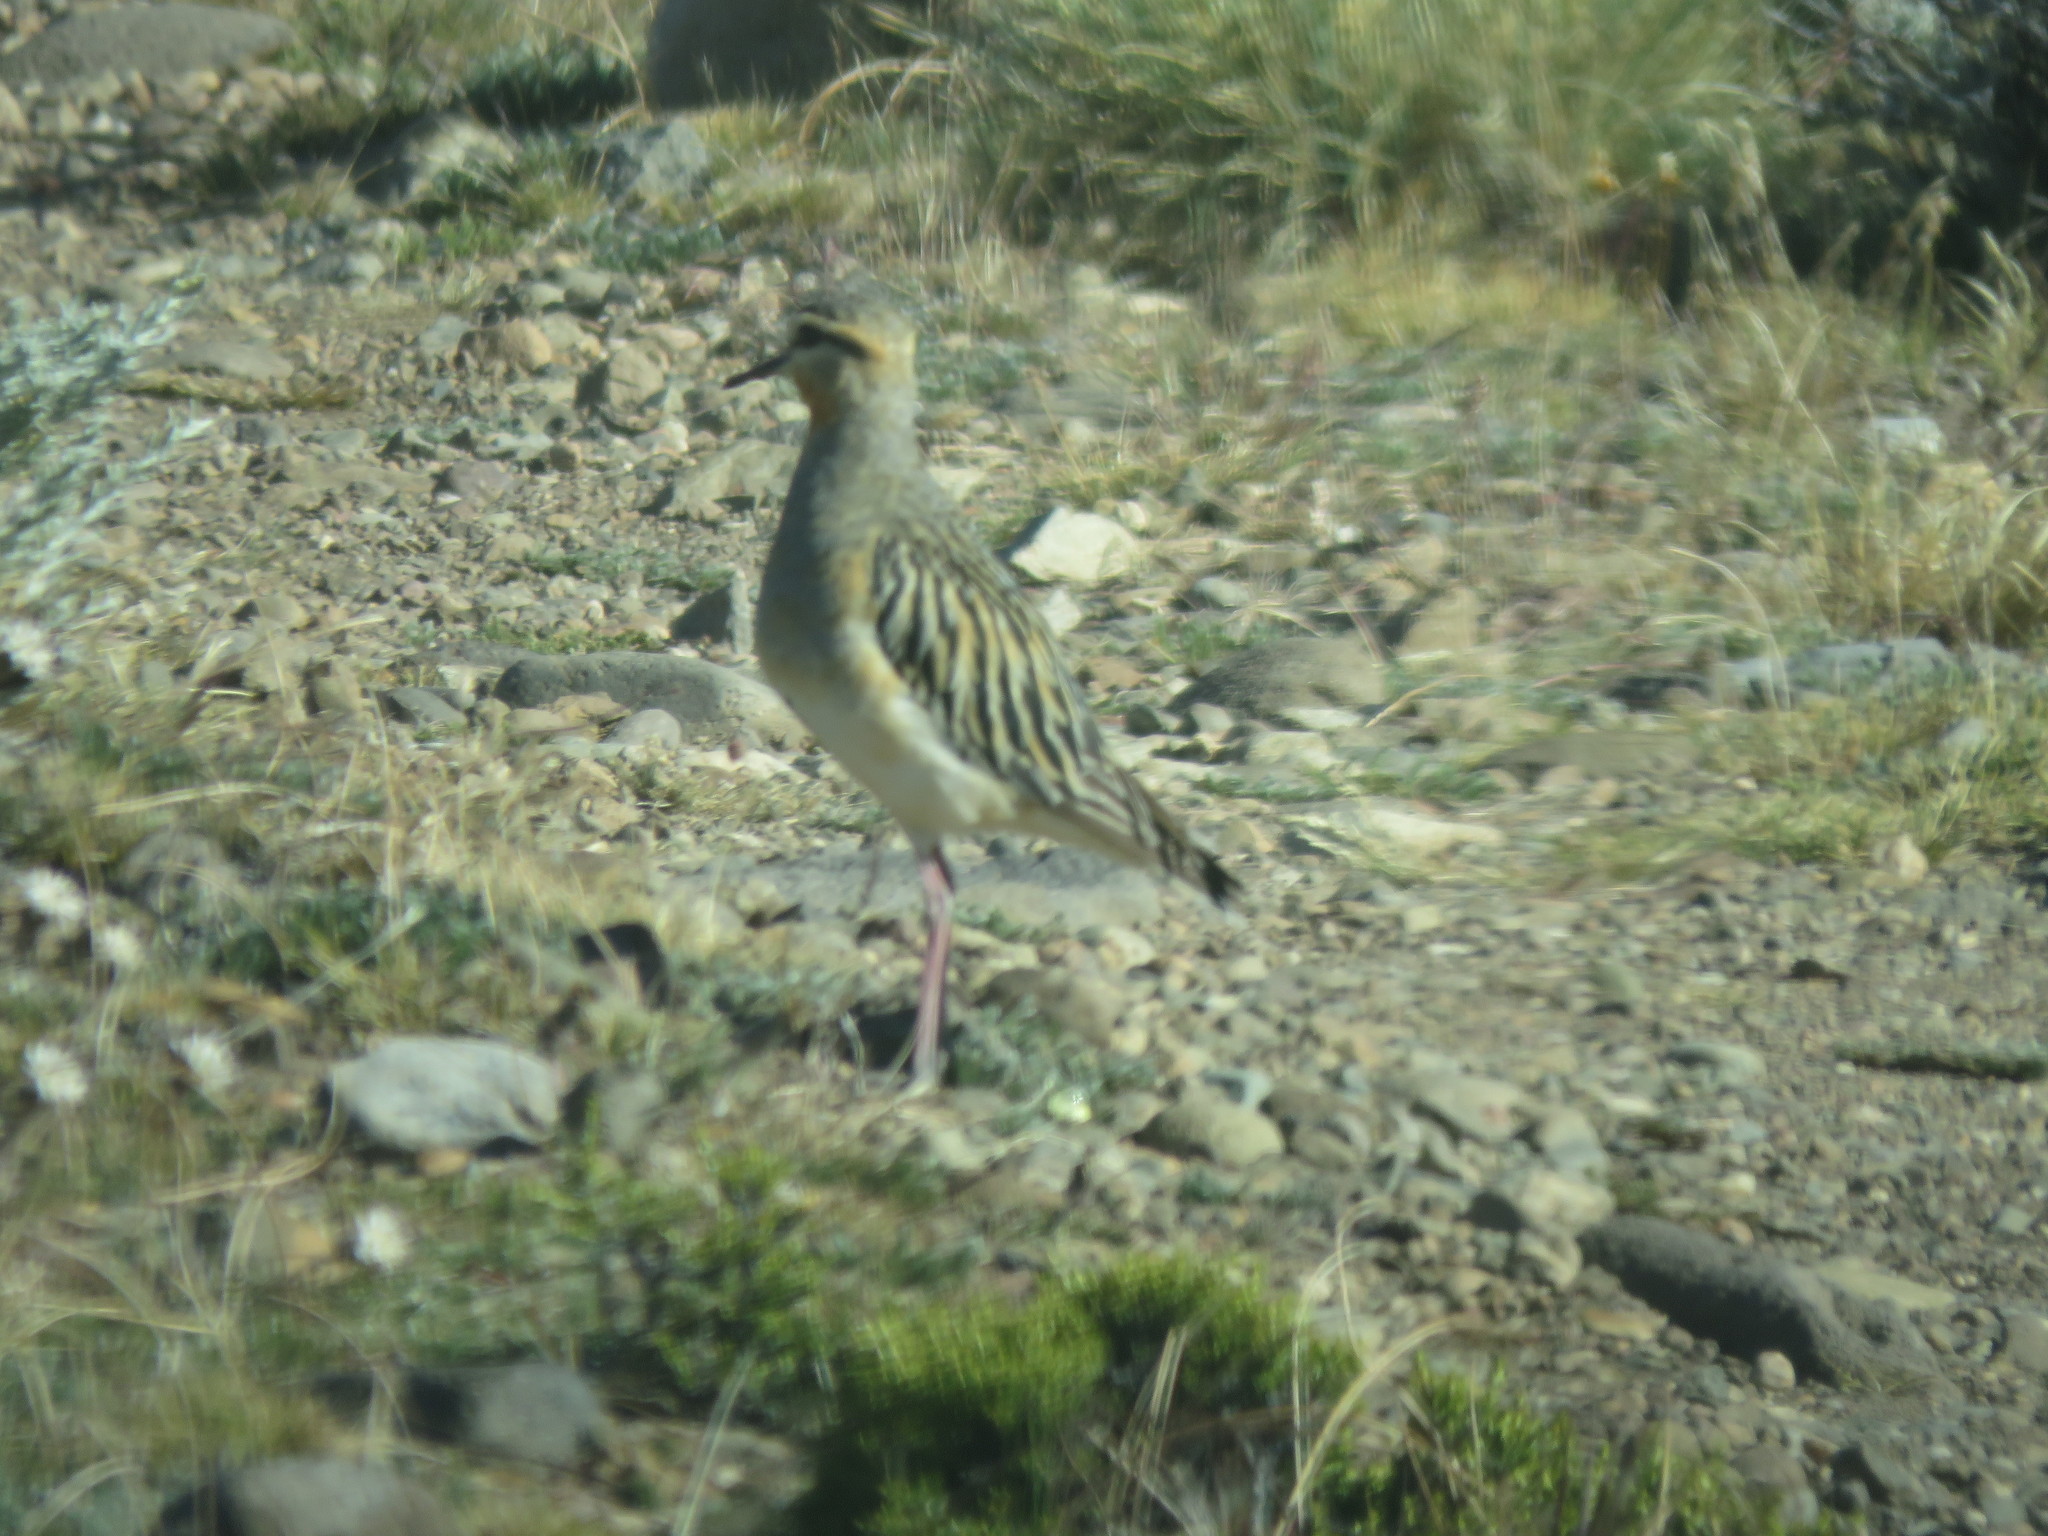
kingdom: Animalia
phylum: Chordata
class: Aves
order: Charadriiformes
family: Charadriidae
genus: Oreopholus
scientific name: Oreopholus ruficollis
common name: Tawny-throated dotterel
